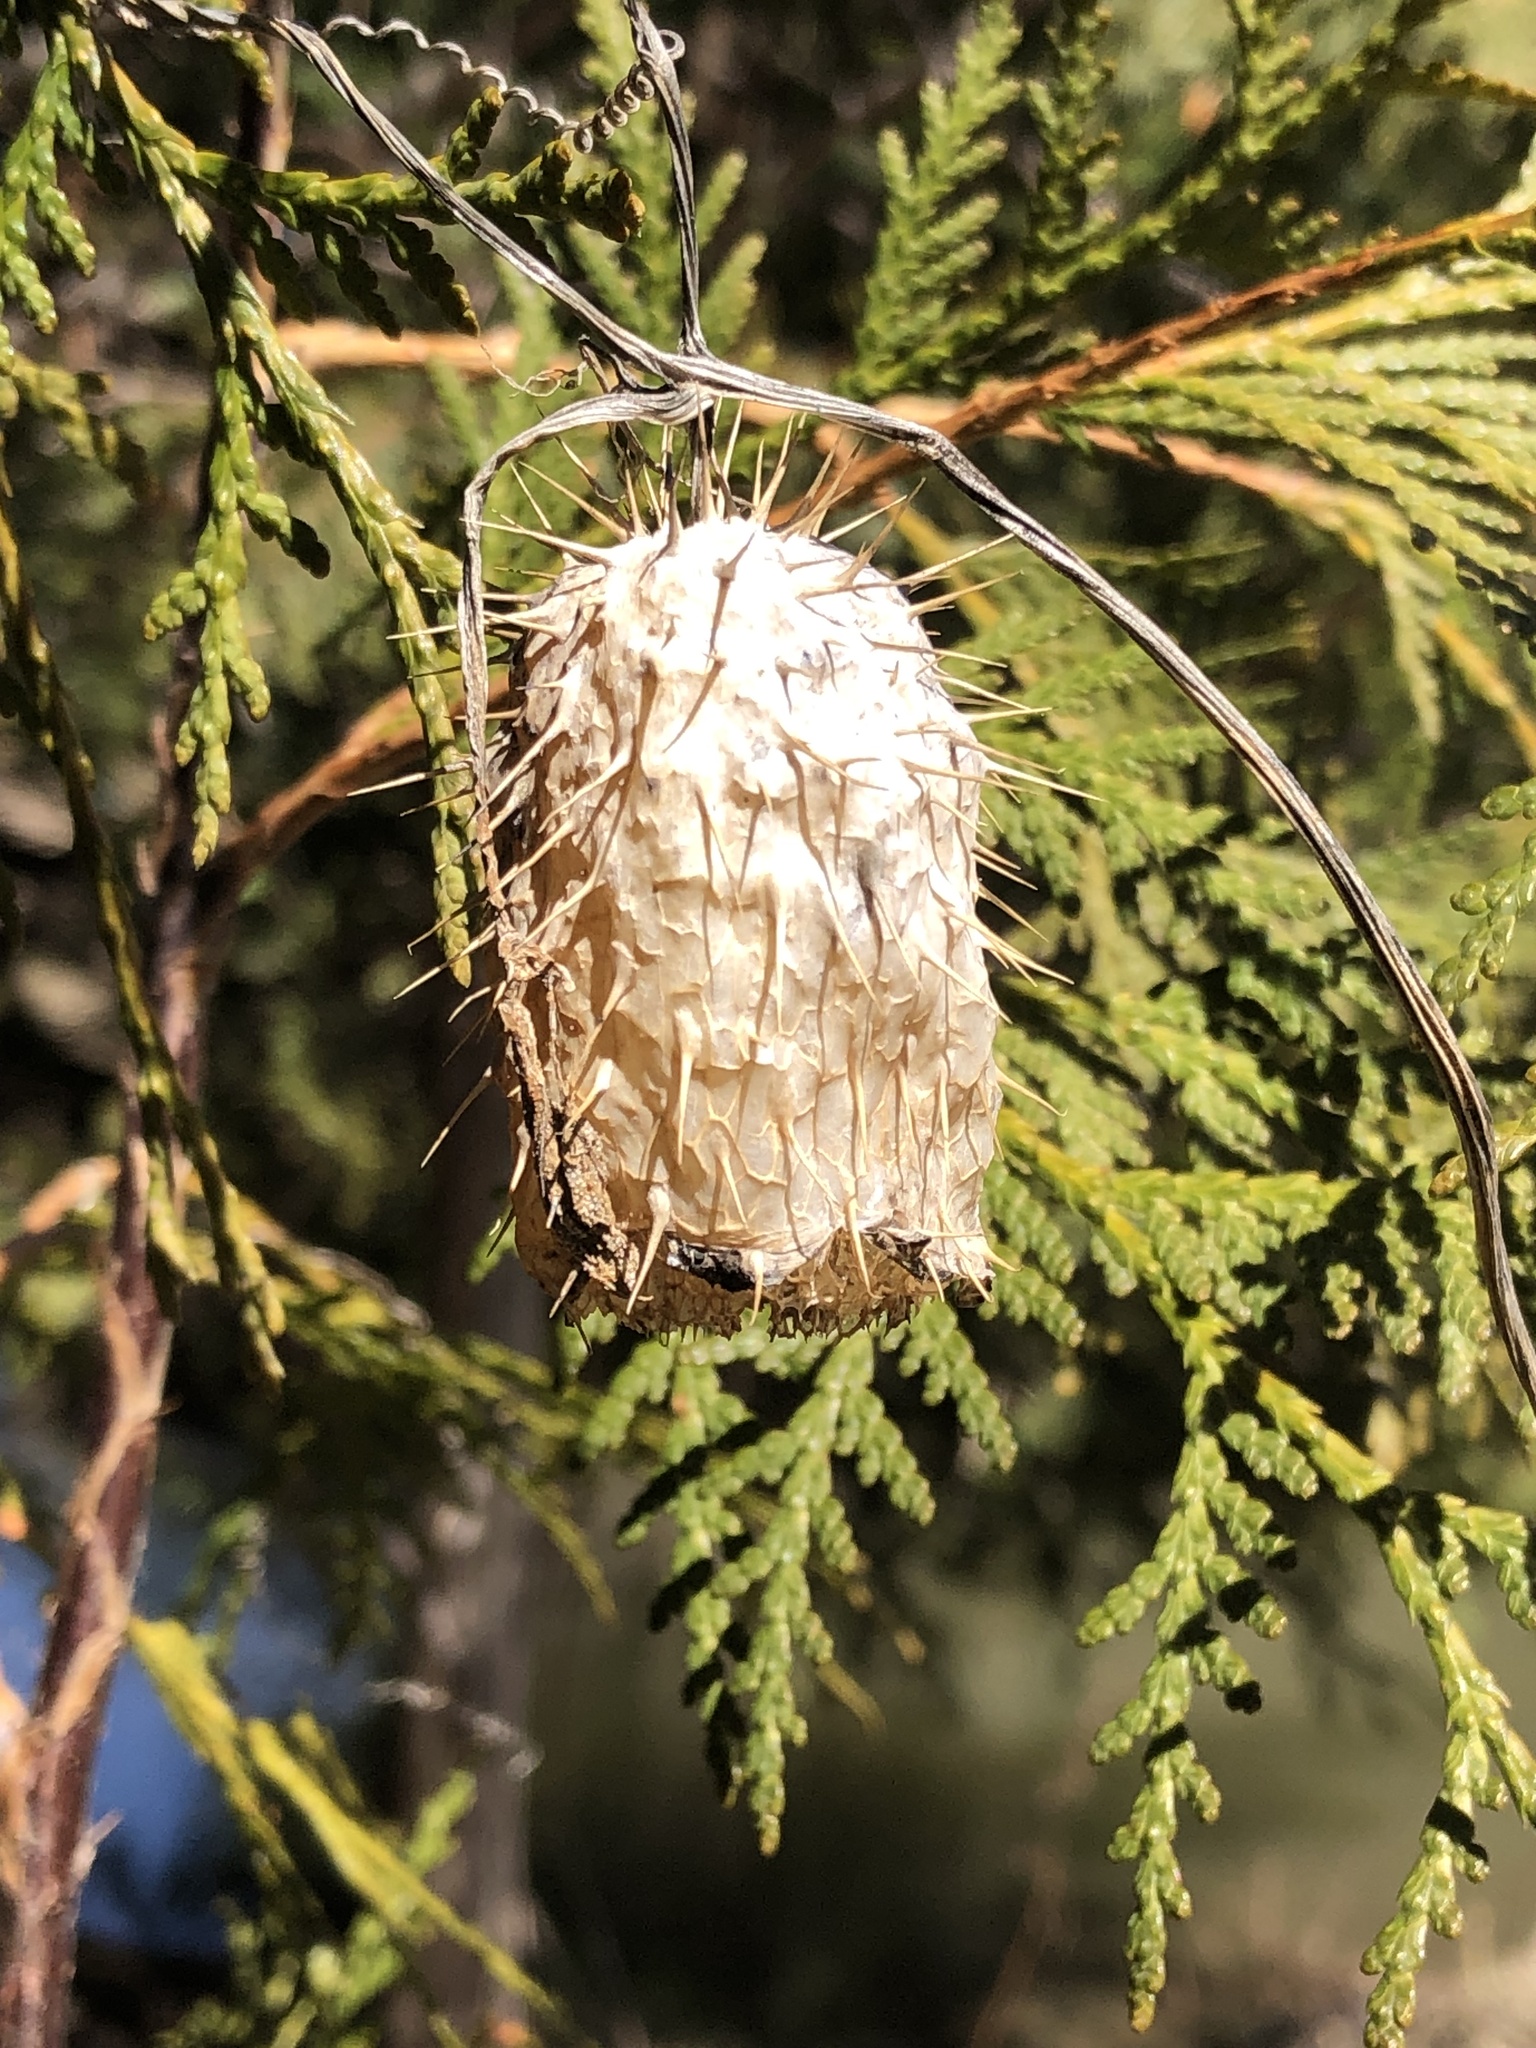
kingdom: Plantae
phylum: Tracheophyta
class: Magnoliopsida
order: Cucurbitales
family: Cucurbitaceae
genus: Echinocystis
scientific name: Echinocystis lobata
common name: Wild cucumber
